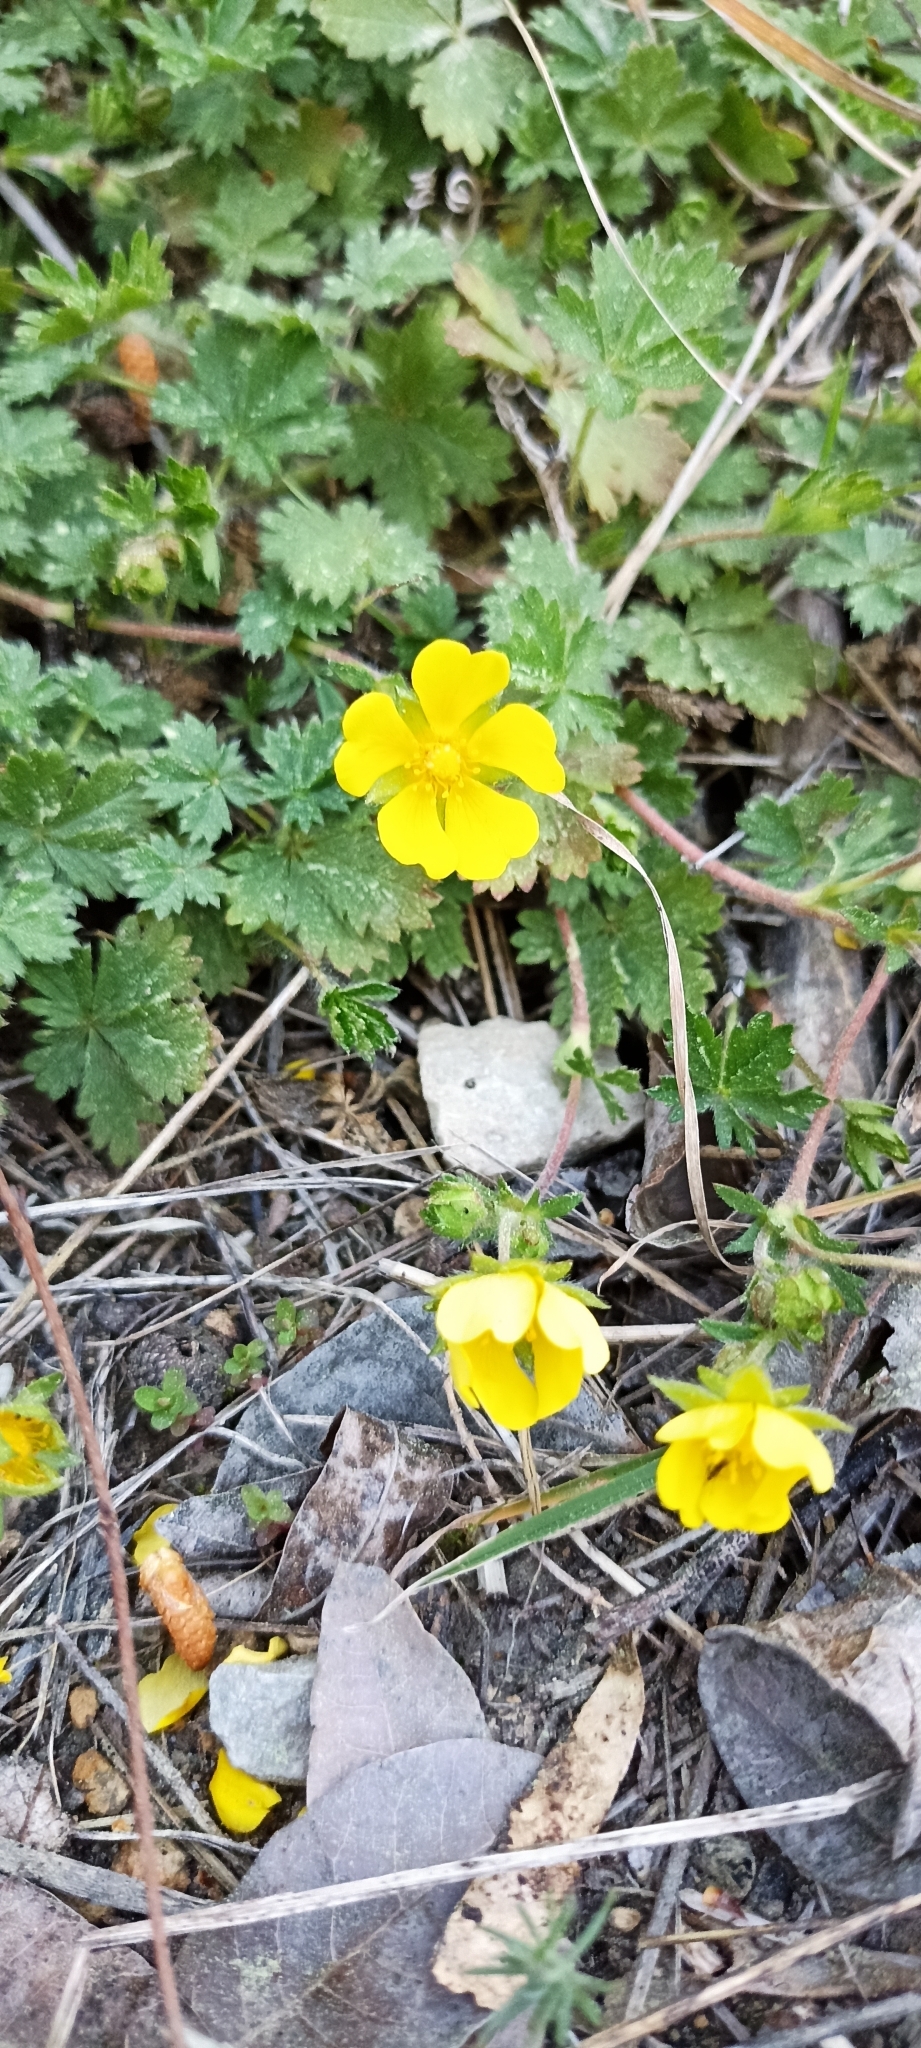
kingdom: Plantae
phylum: Tracheophyta
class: Magnoliopsida
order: Rosales
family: Rosaceae
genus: Potentilla
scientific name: Potentilla verna
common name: Spring cinquefoil
